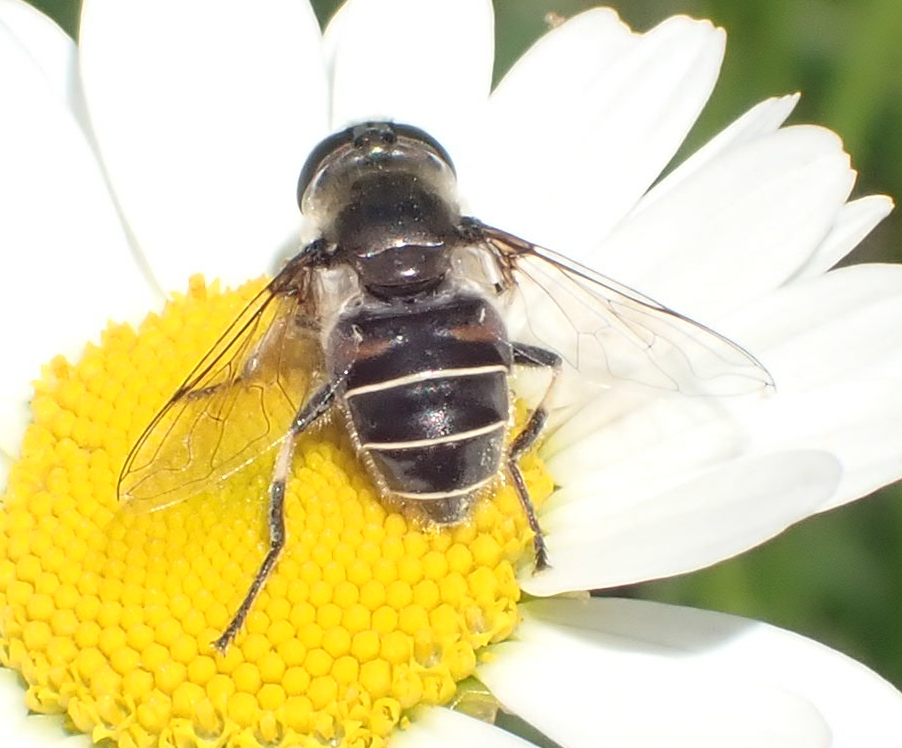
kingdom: Animalia
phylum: Arthropoda
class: Insecta
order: Diptera
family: Syrphidae
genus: Eristalis
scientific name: Eristalis dimidiata
